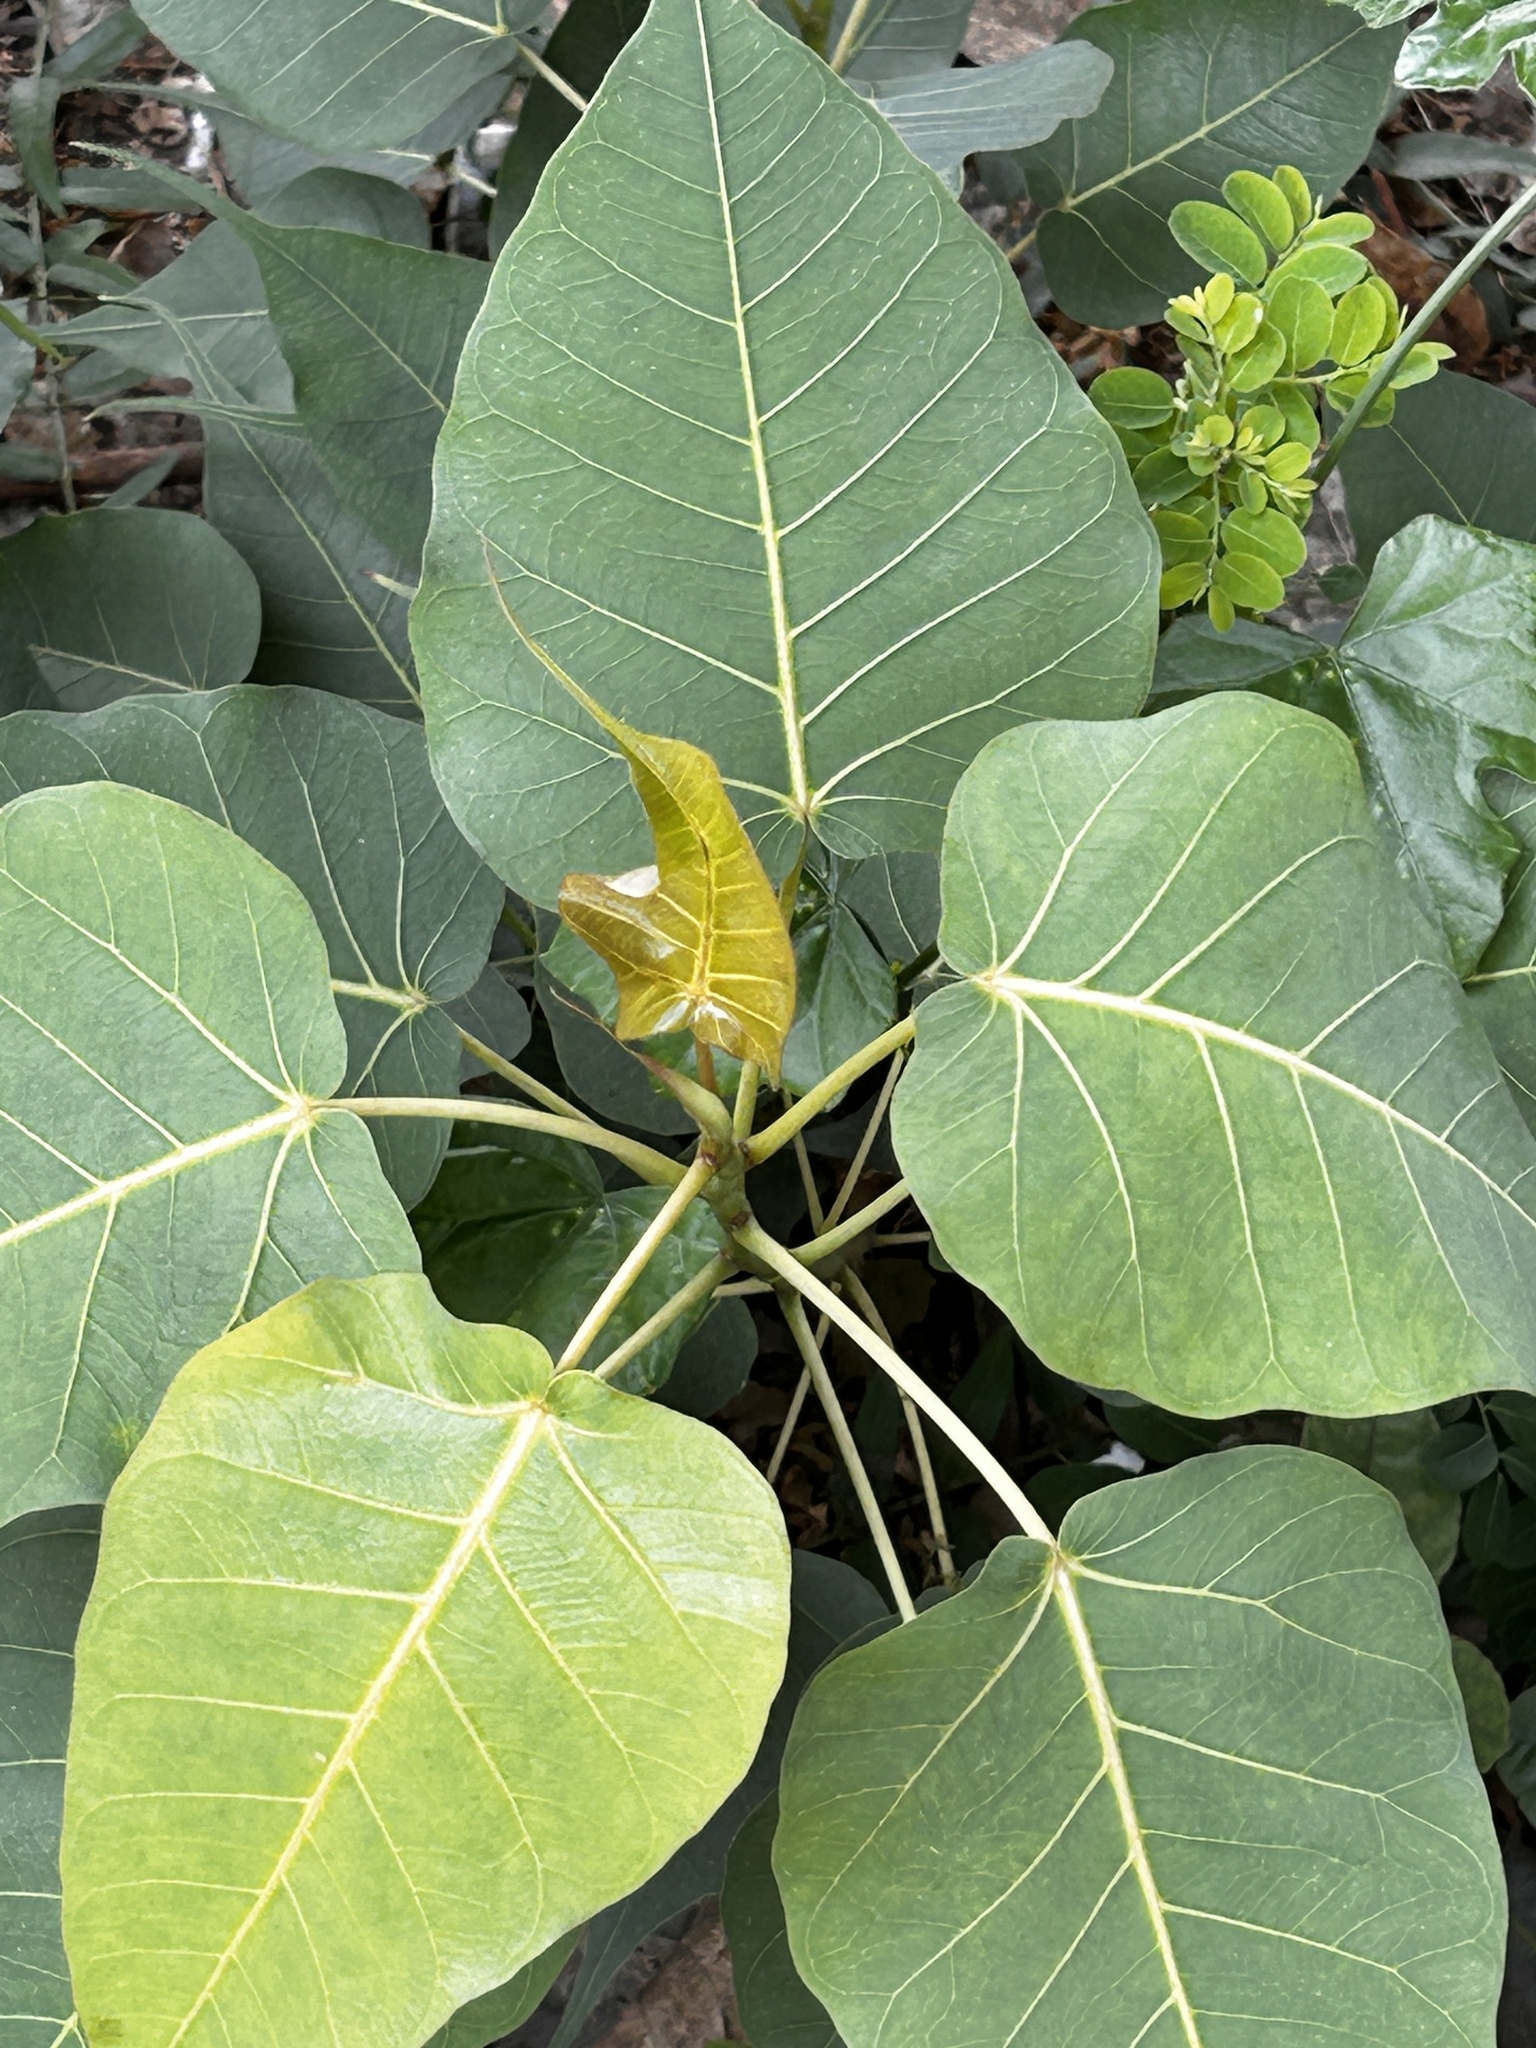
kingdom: Plantae
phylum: Tracheophyta
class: Magnoliopsida
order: Rosales
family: Moraceae
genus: Ficus
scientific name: Ficus religiosa
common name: Bodhi tree
